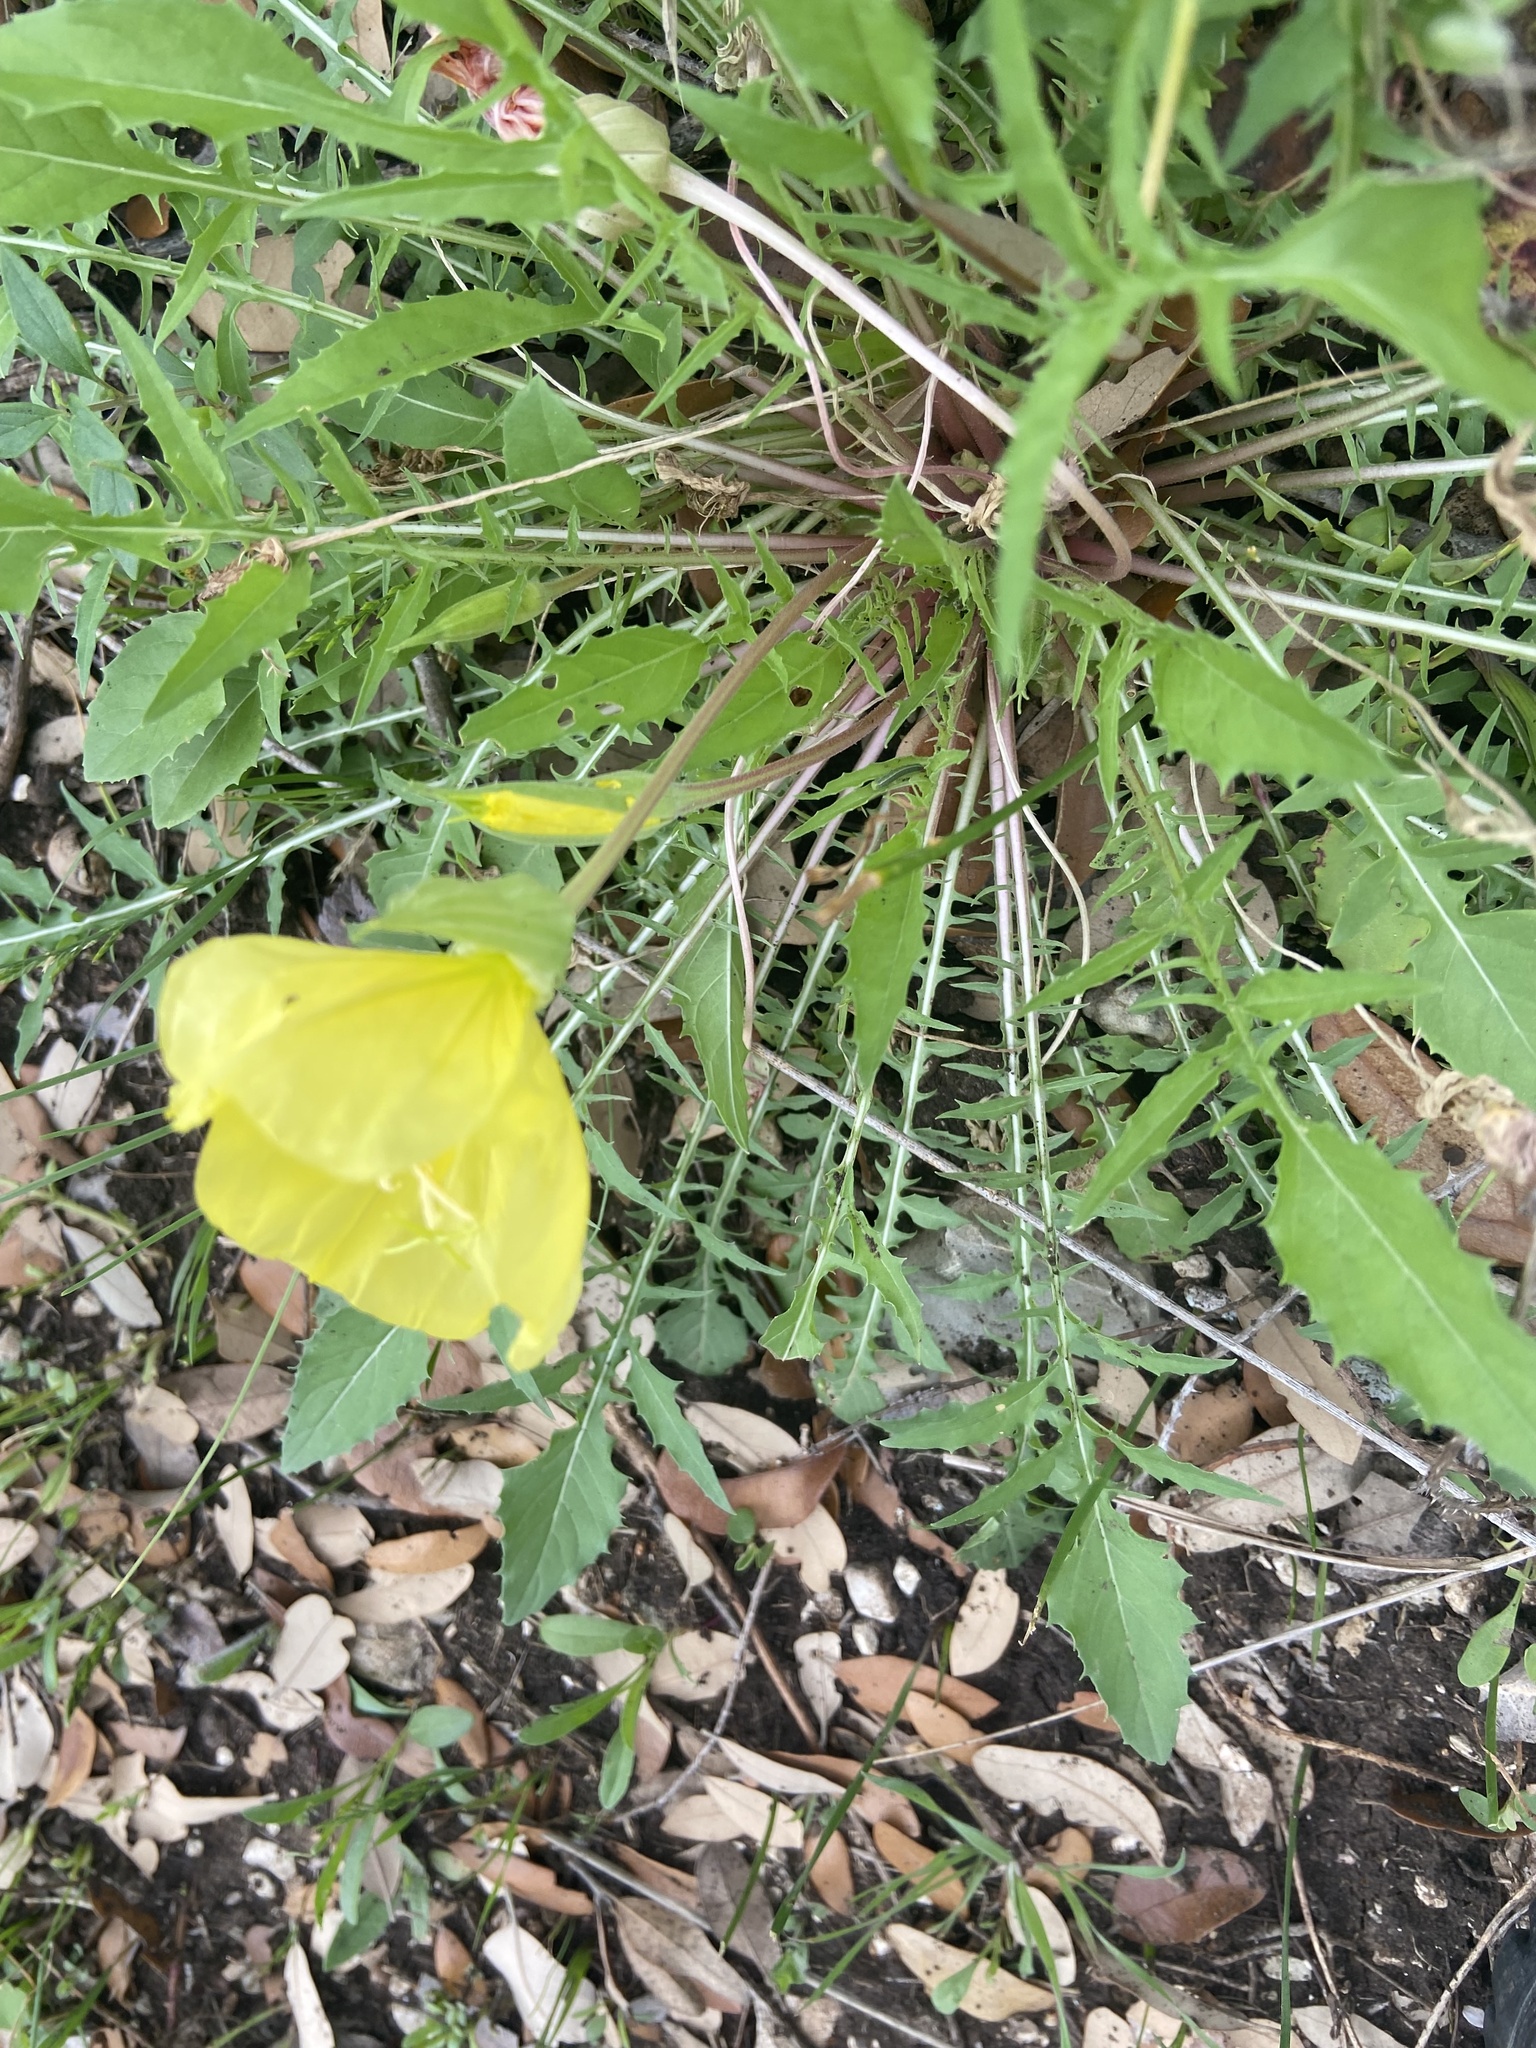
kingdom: Plantae
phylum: Tracheophyta
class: Magnoliopsida
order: Myrtales
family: Onagraceae
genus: Oenothera
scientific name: Oenothera triloba
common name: Sessile evening-primrose
